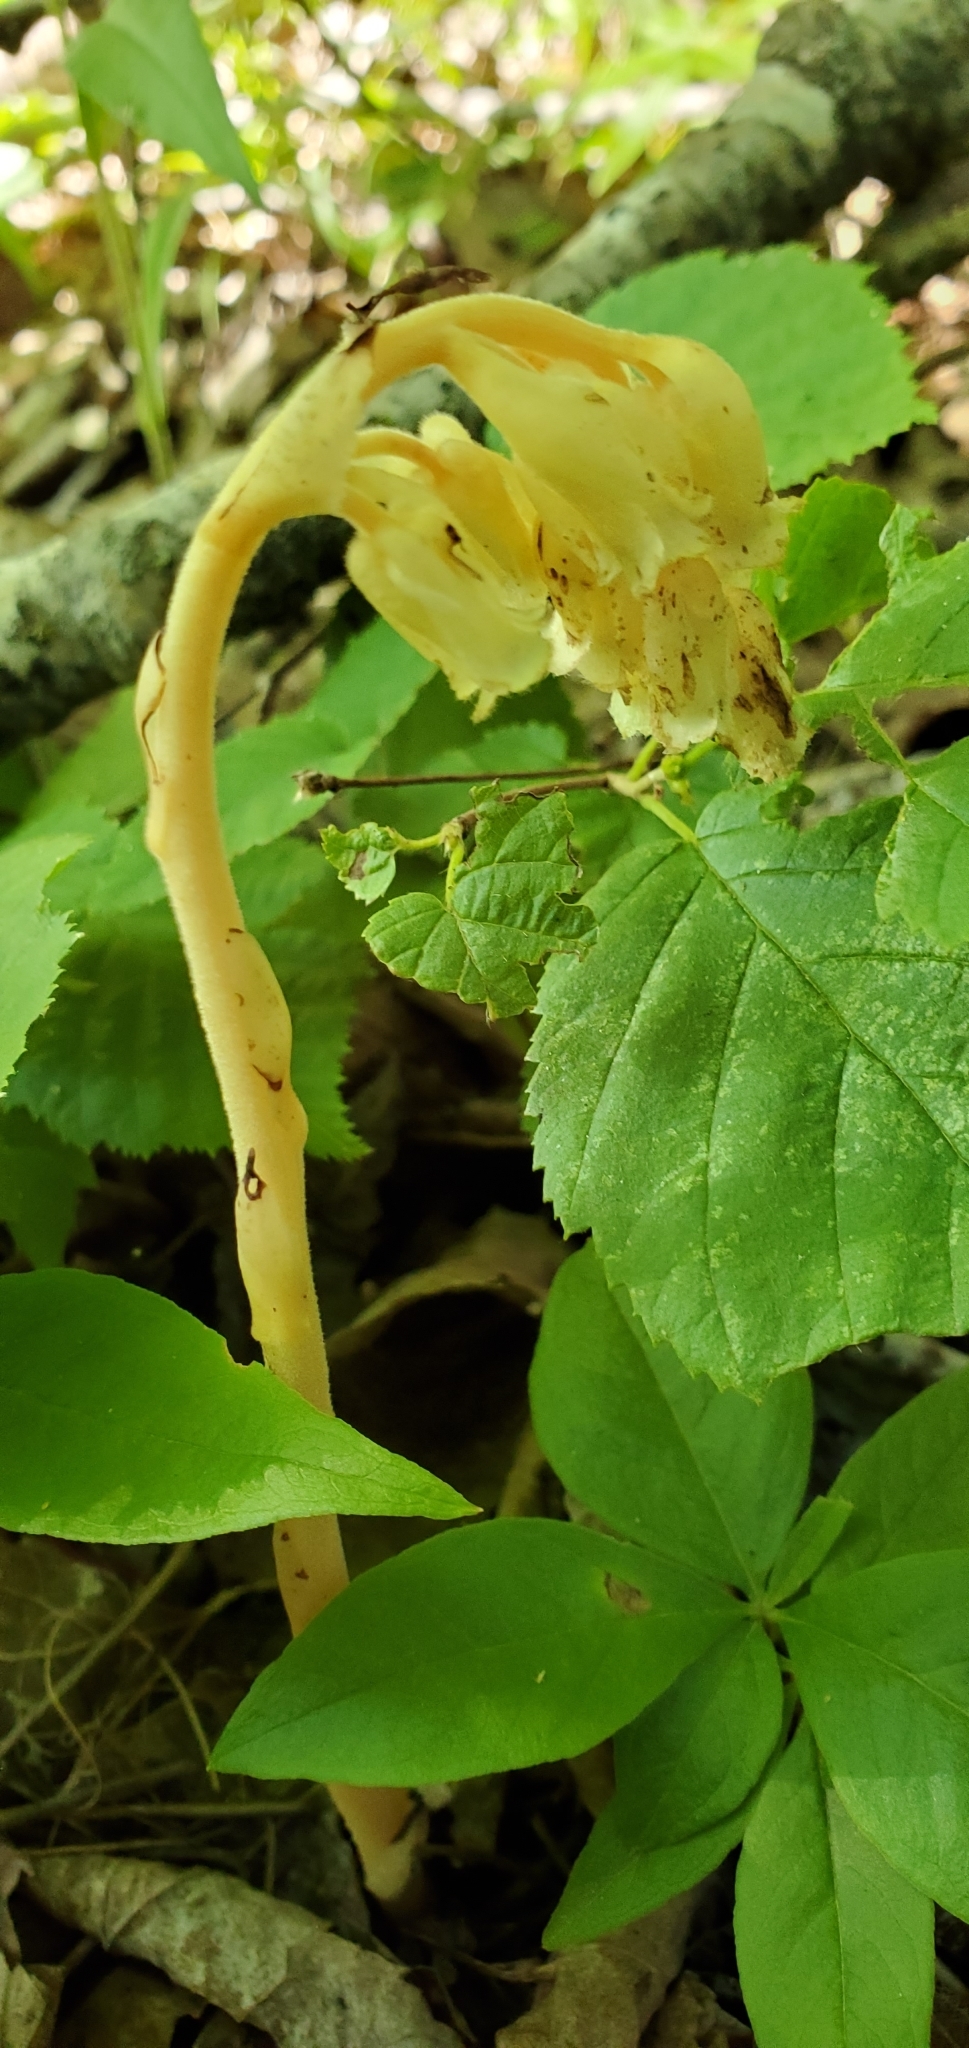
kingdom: Plantae
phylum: Tracheophyta
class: Magnoliopsida
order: Ericales
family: Ericaceae
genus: Hypopitys
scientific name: Hypopitys monotropa
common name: Yellow bird's-nest
